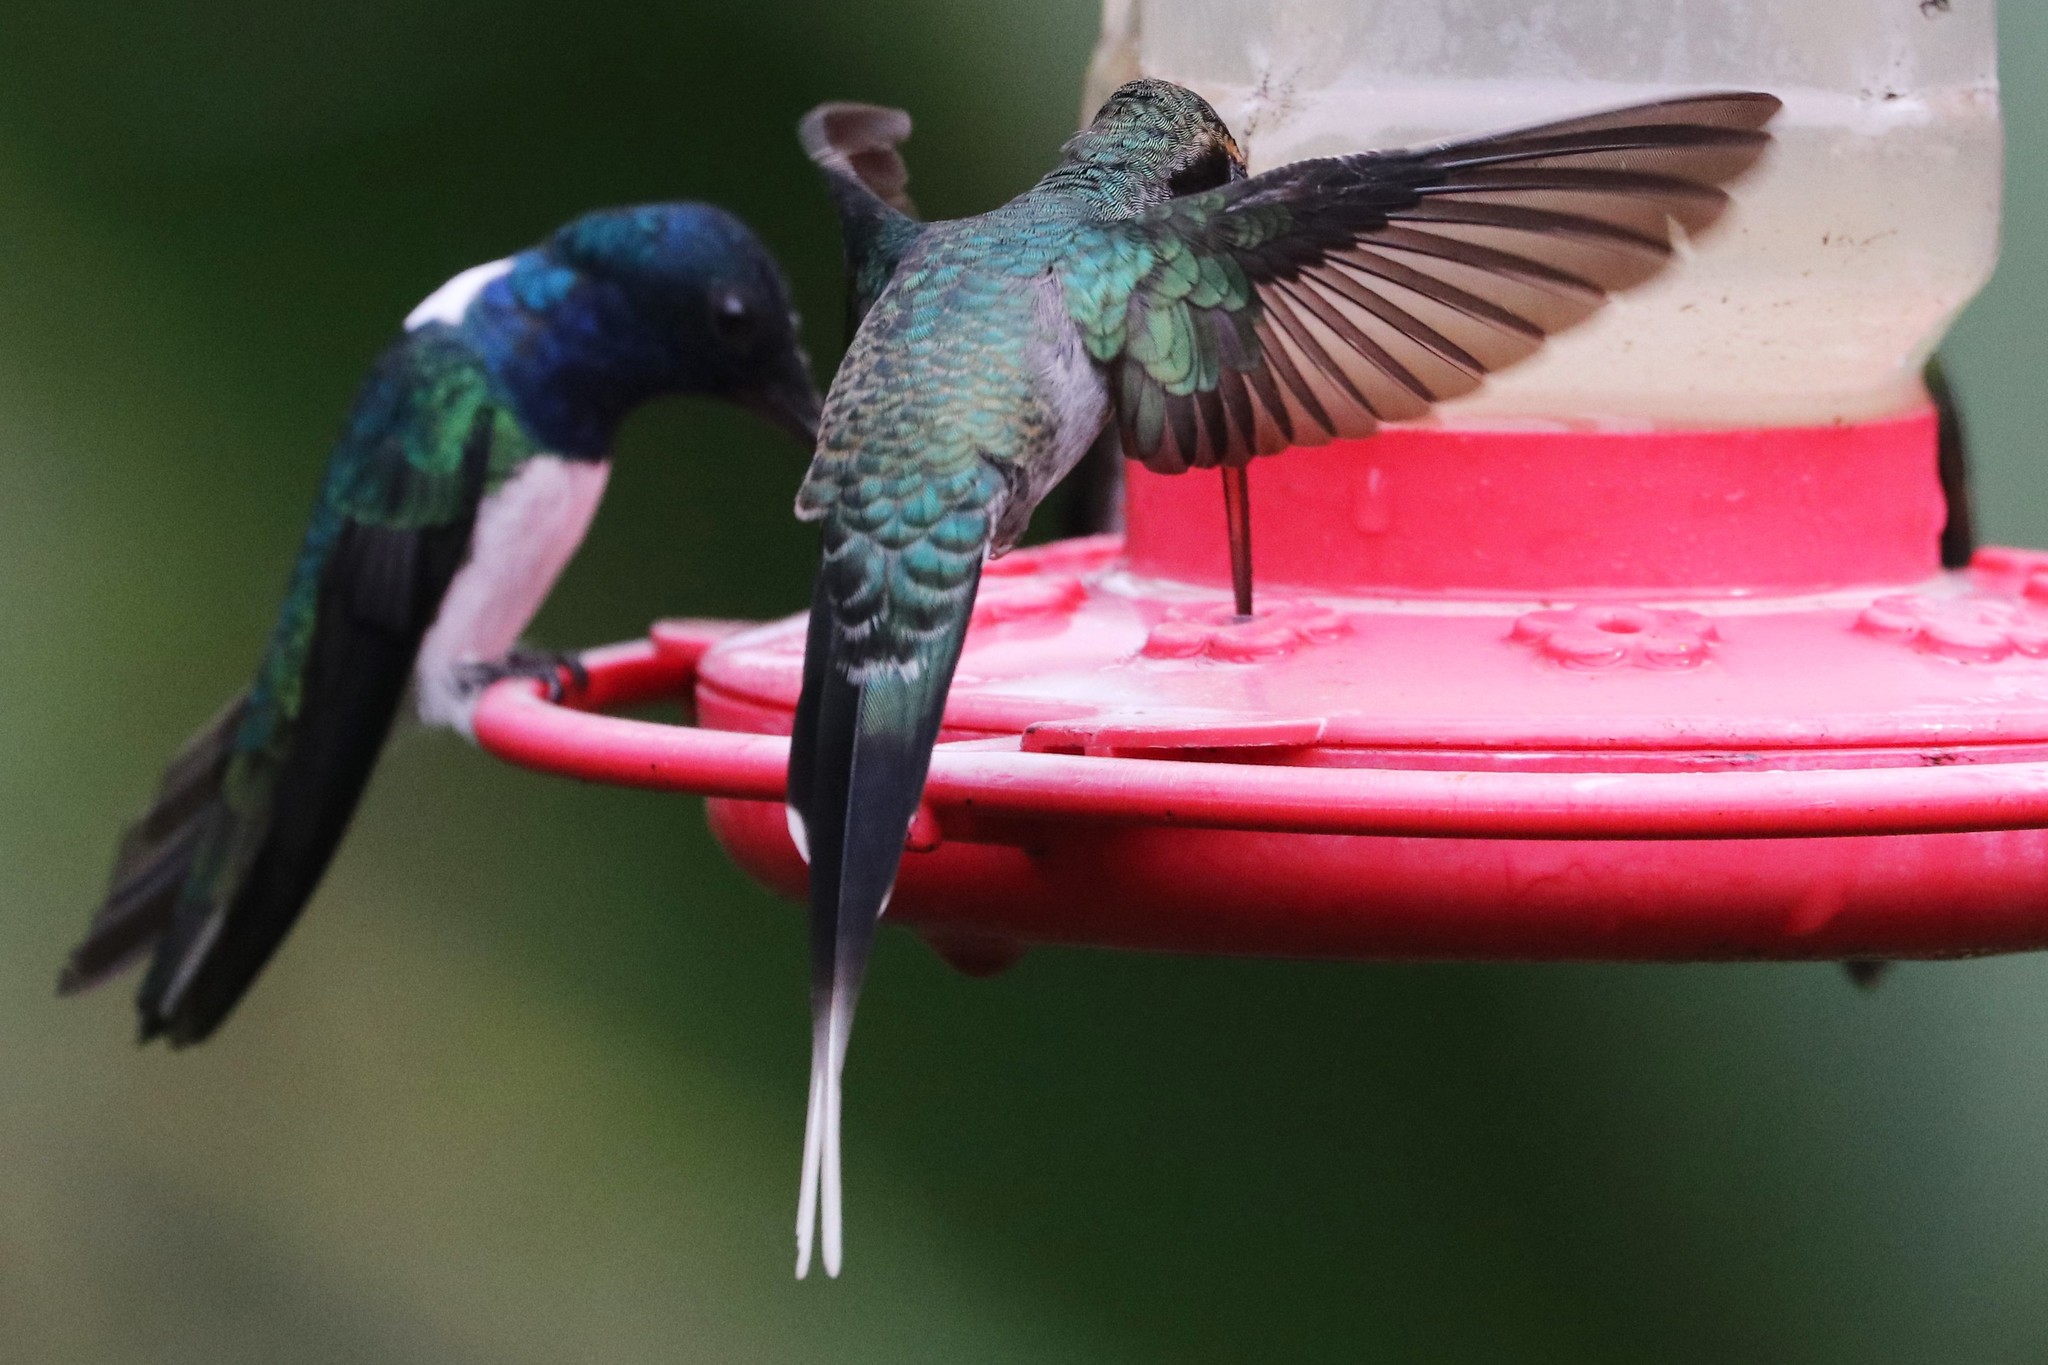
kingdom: Animalia
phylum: Chordata
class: Aves
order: Apodiformes
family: Trochilidae
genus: Phaethornis
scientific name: Phaethornis guy
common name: Green hermit
